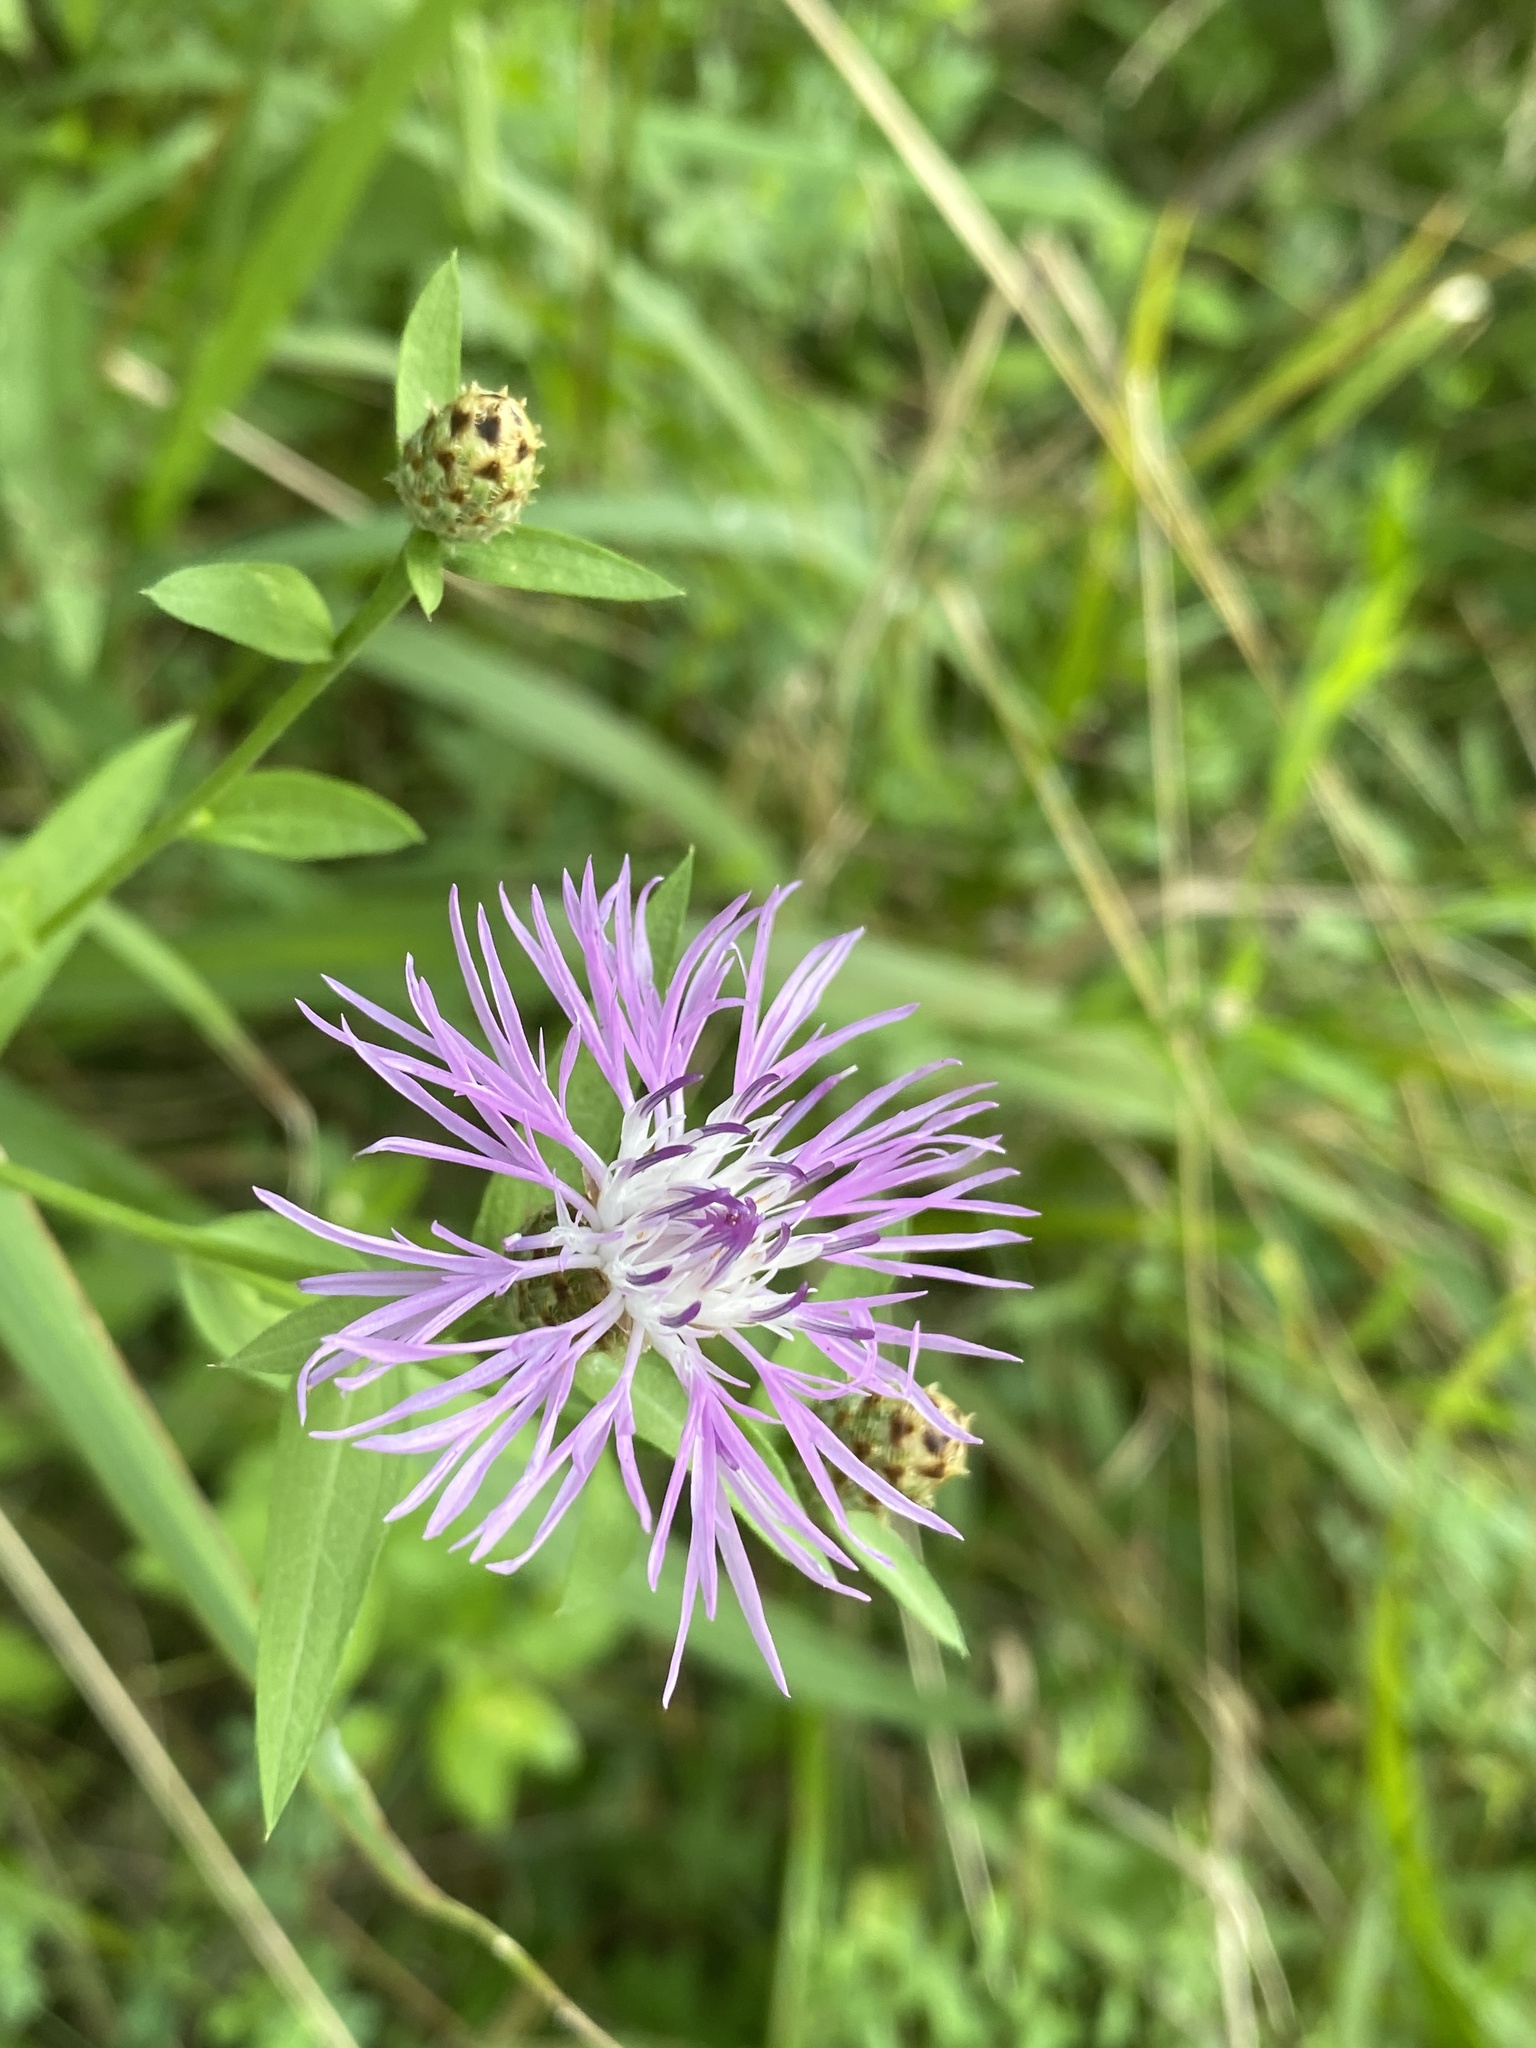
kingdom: Plantae
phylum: Tracheophyta
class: Magnoliopsida
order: Asterales
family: Asteraceae
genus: Centaurea
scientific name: Centaurea nigrescens
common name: Tyrol knapweed
